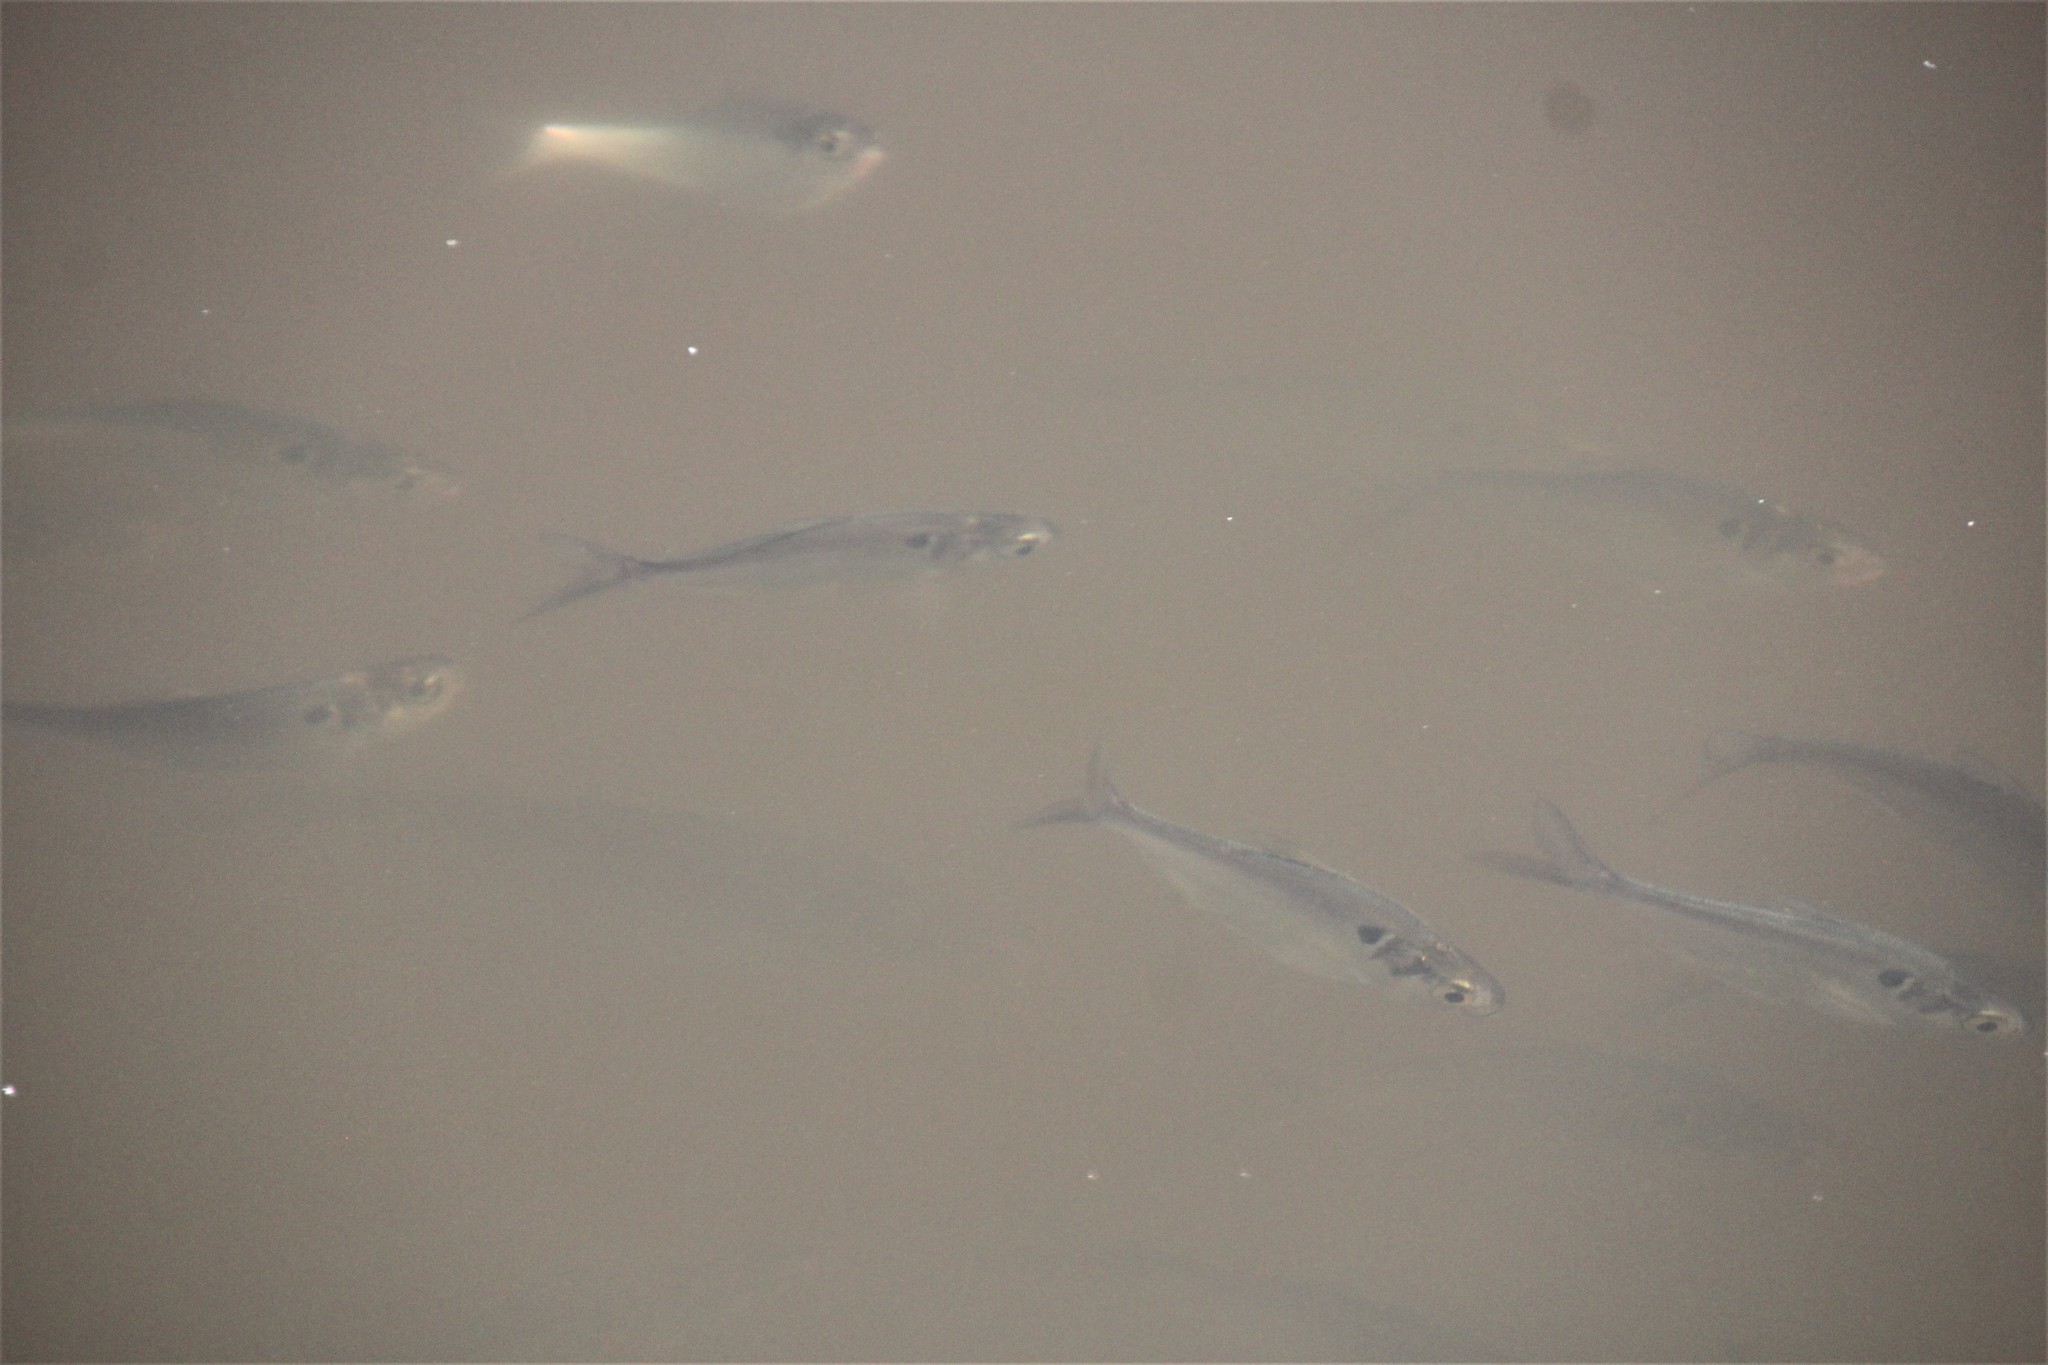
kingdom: Animalia
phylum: Chordata
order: Clupeiformes
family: Clupeidae
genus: Dorosoma
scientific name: Dorosoma cepedianum
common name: Gizzard shad
